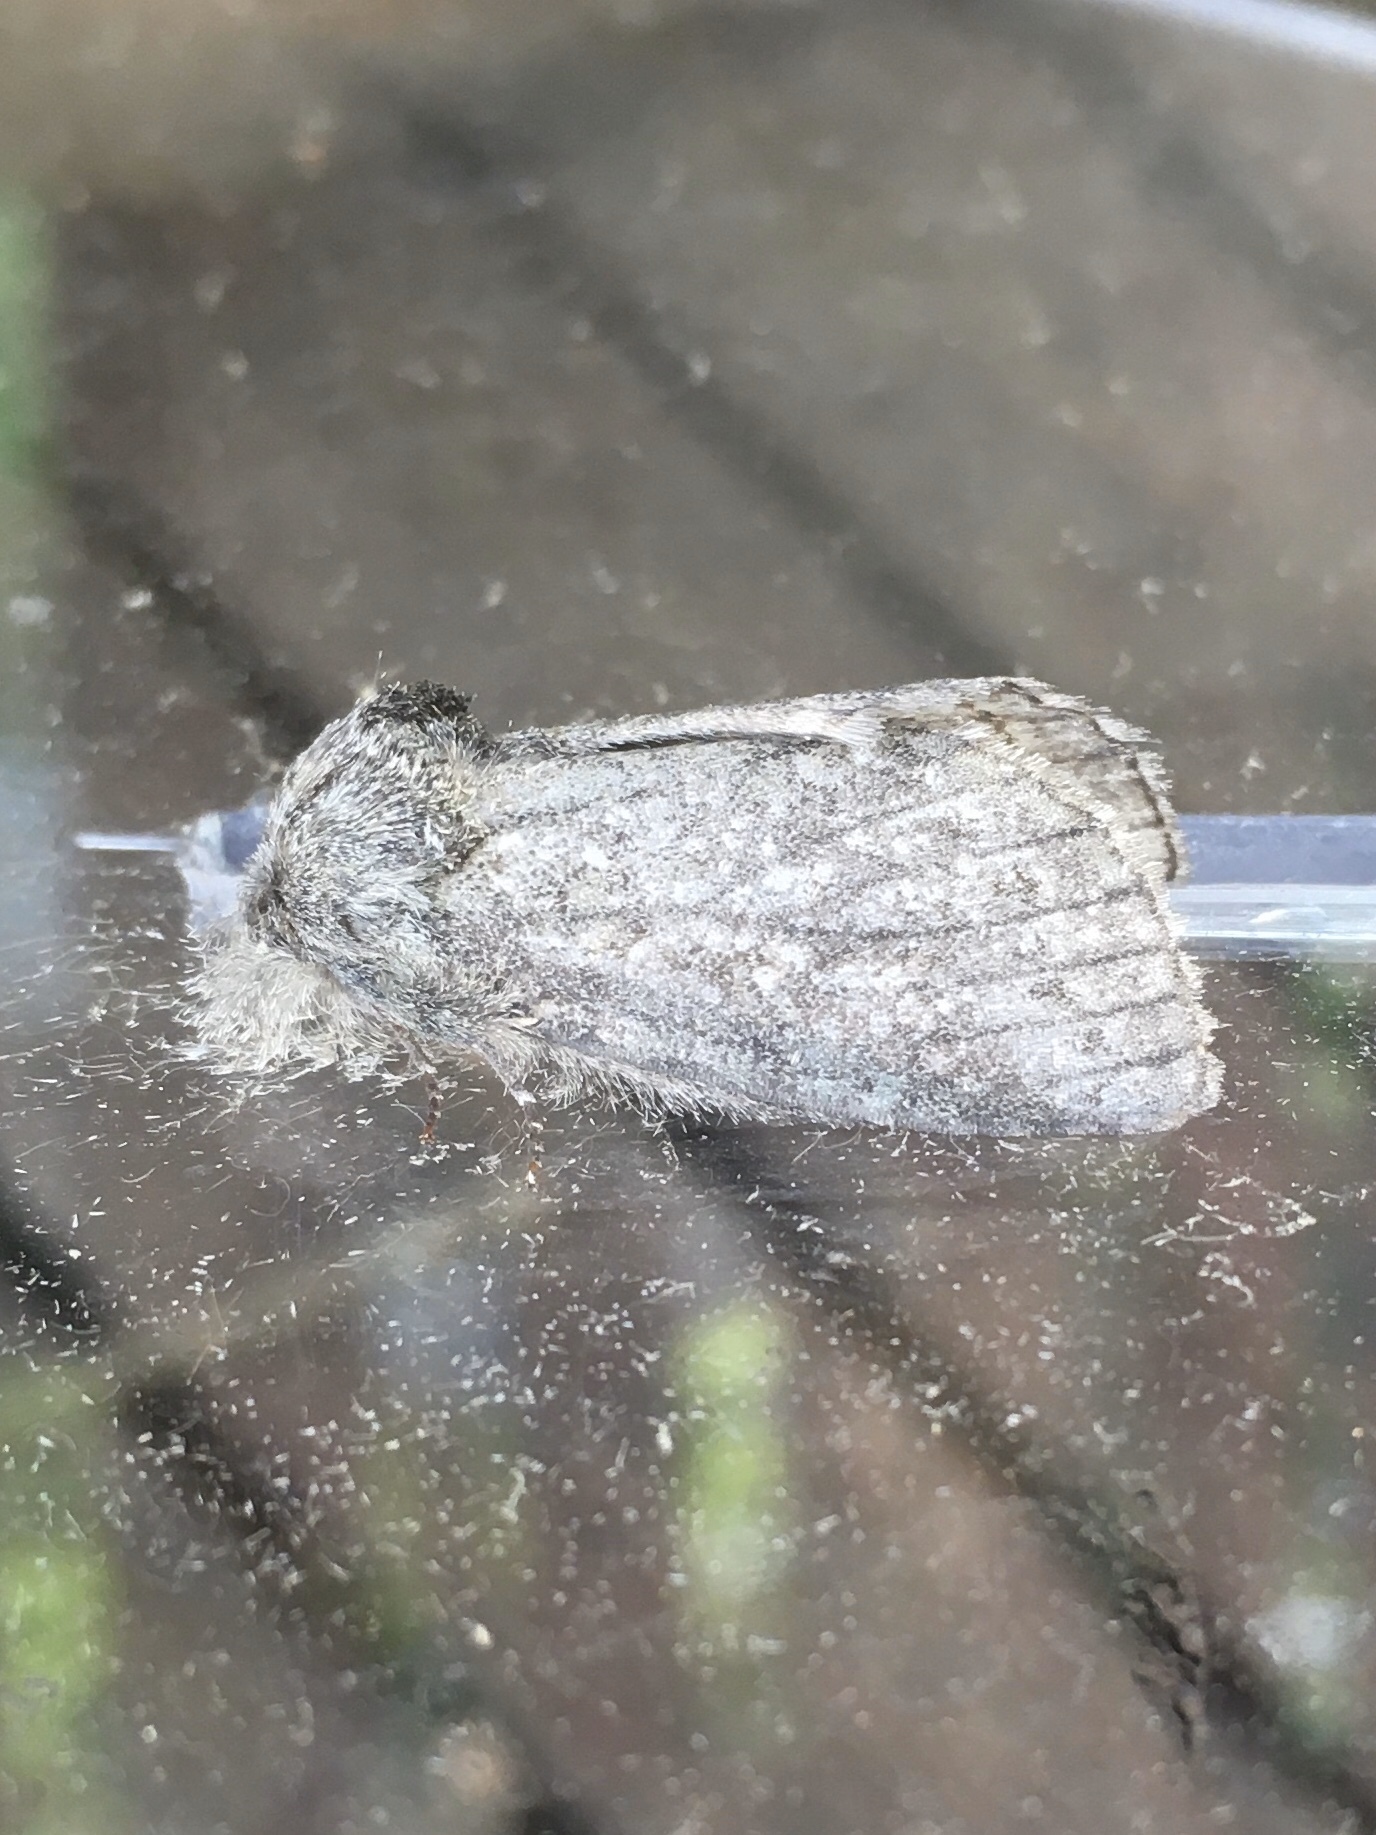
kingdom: Animalia
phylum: Arthropoda
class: Insecta
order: Lepidoptera
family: Notodontidae
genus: Disphragis
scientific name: Disphragis Cecrita guttivitta
